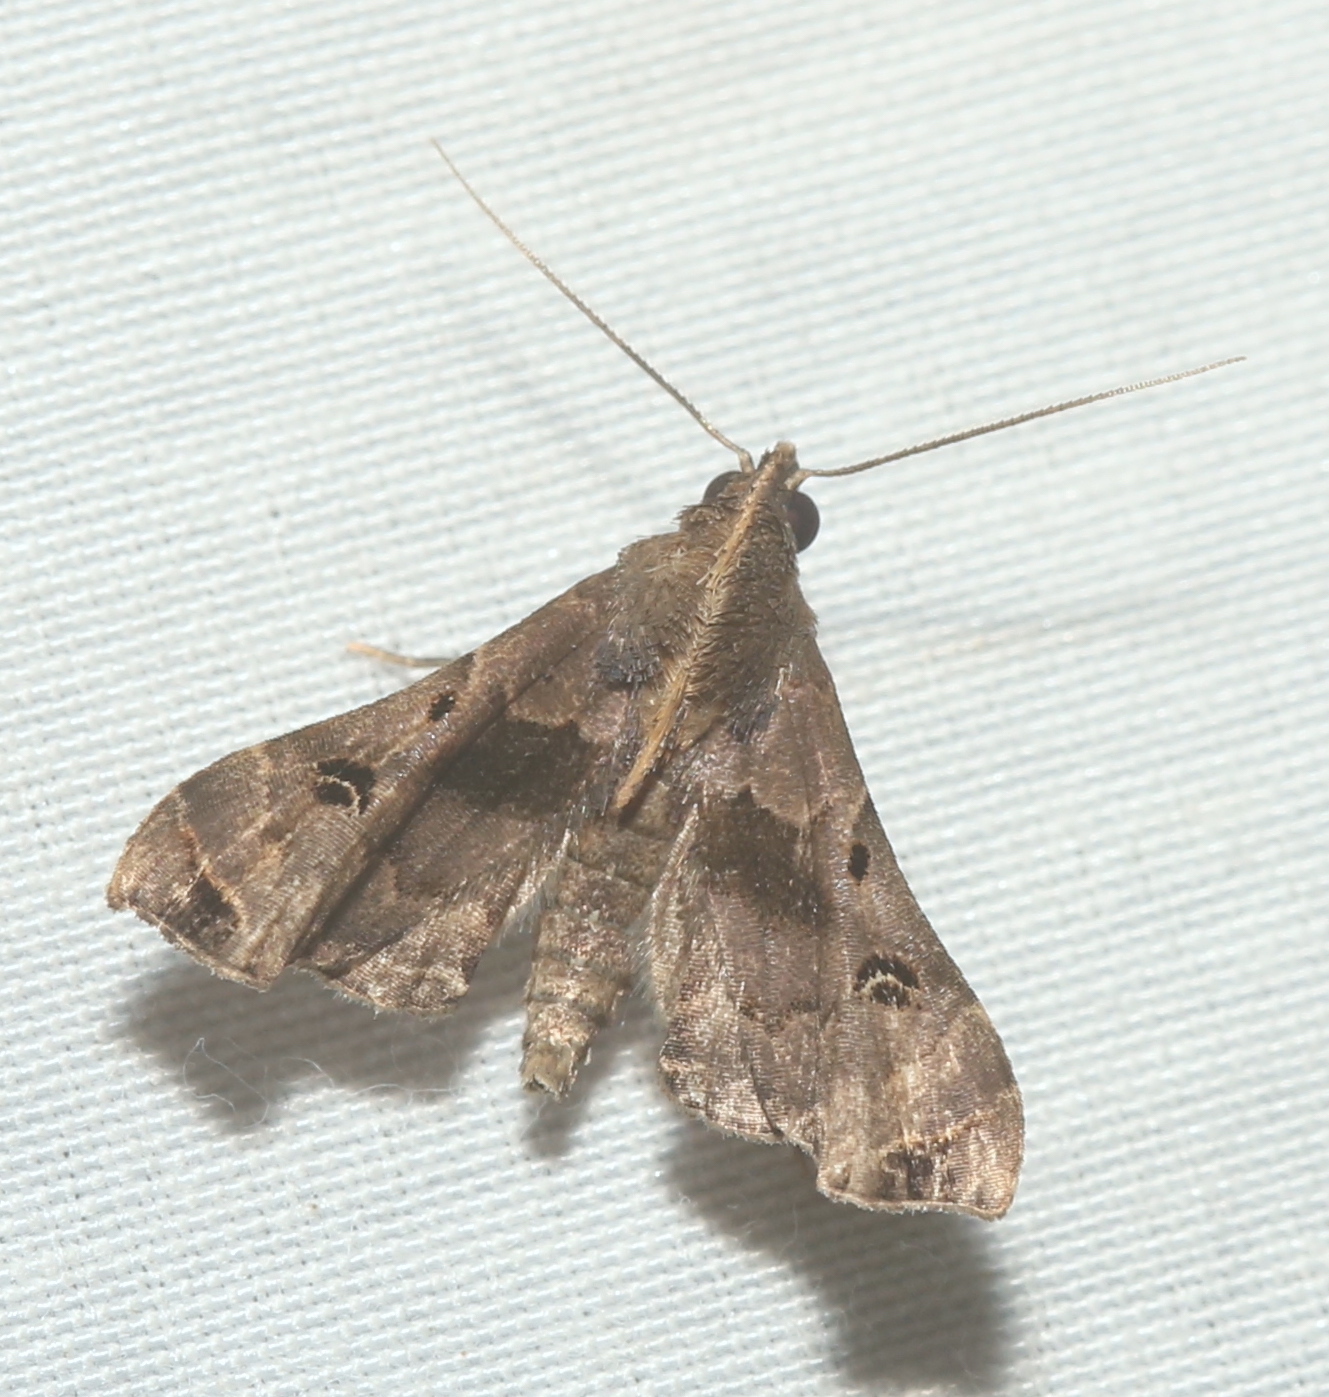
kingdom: Animalia
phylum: Arthropoda
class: Insecta
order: Lepidoptera
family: Erebidae
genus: Palthis
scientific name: Palthis asopialis
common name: Faint-spotted palthis moth
